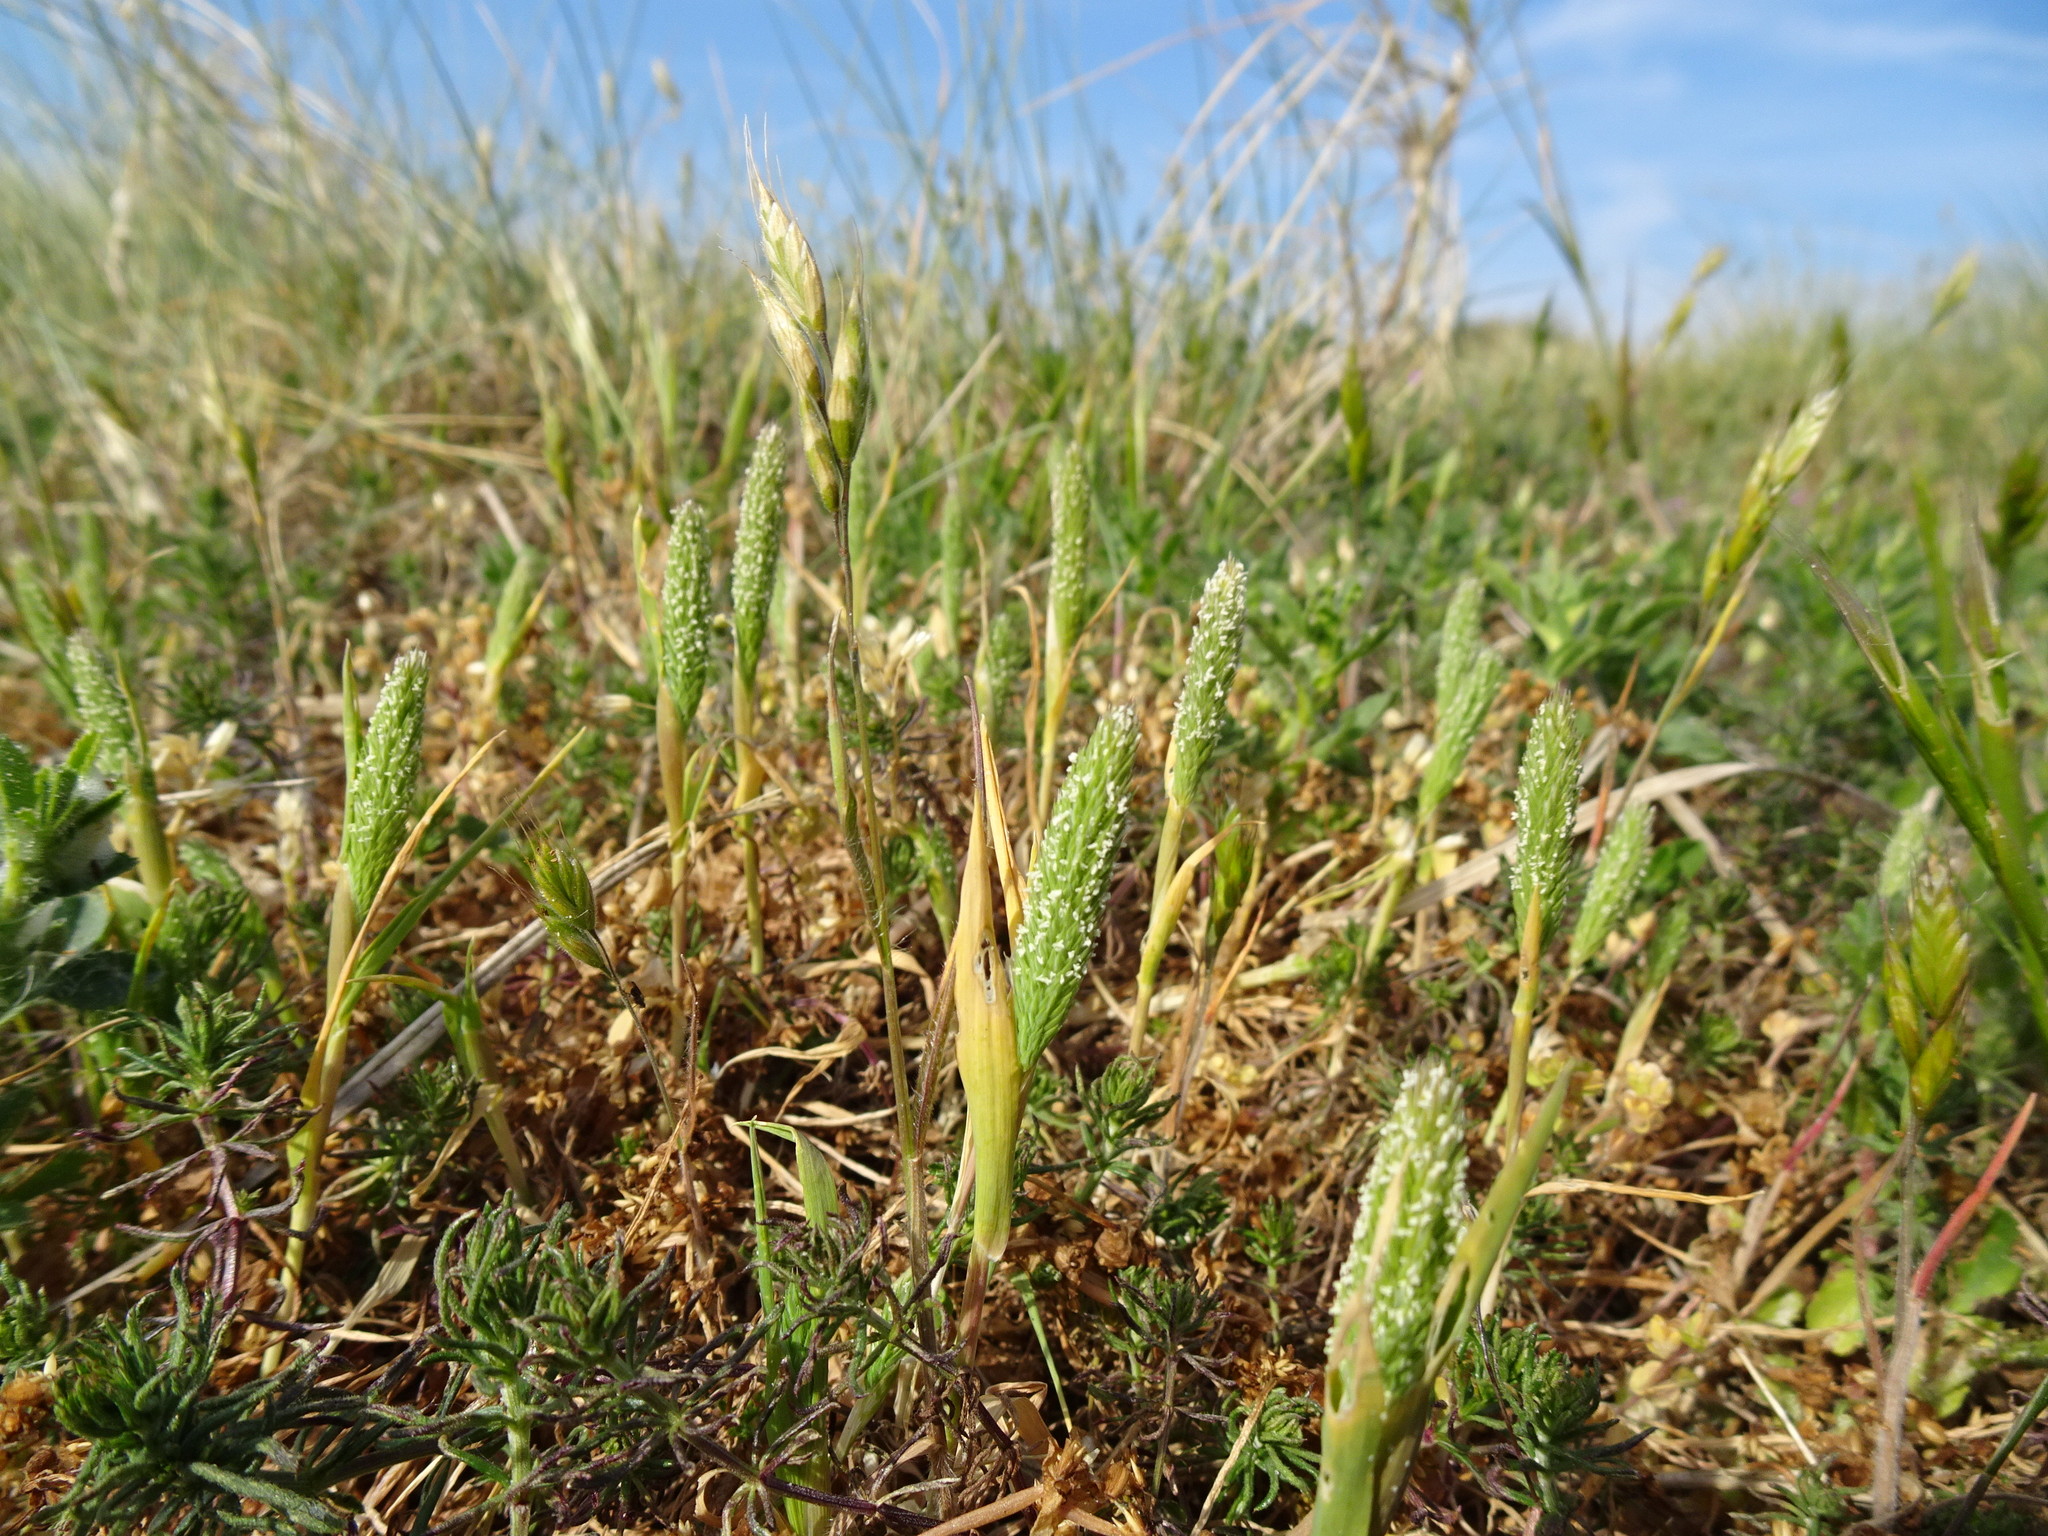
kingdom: Plantae
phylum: Tracheophyta
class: Liliopsida
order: Poales
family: Poaceae
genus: Phleum
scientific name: Phleum arenarium
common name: Sand cat's-tail
